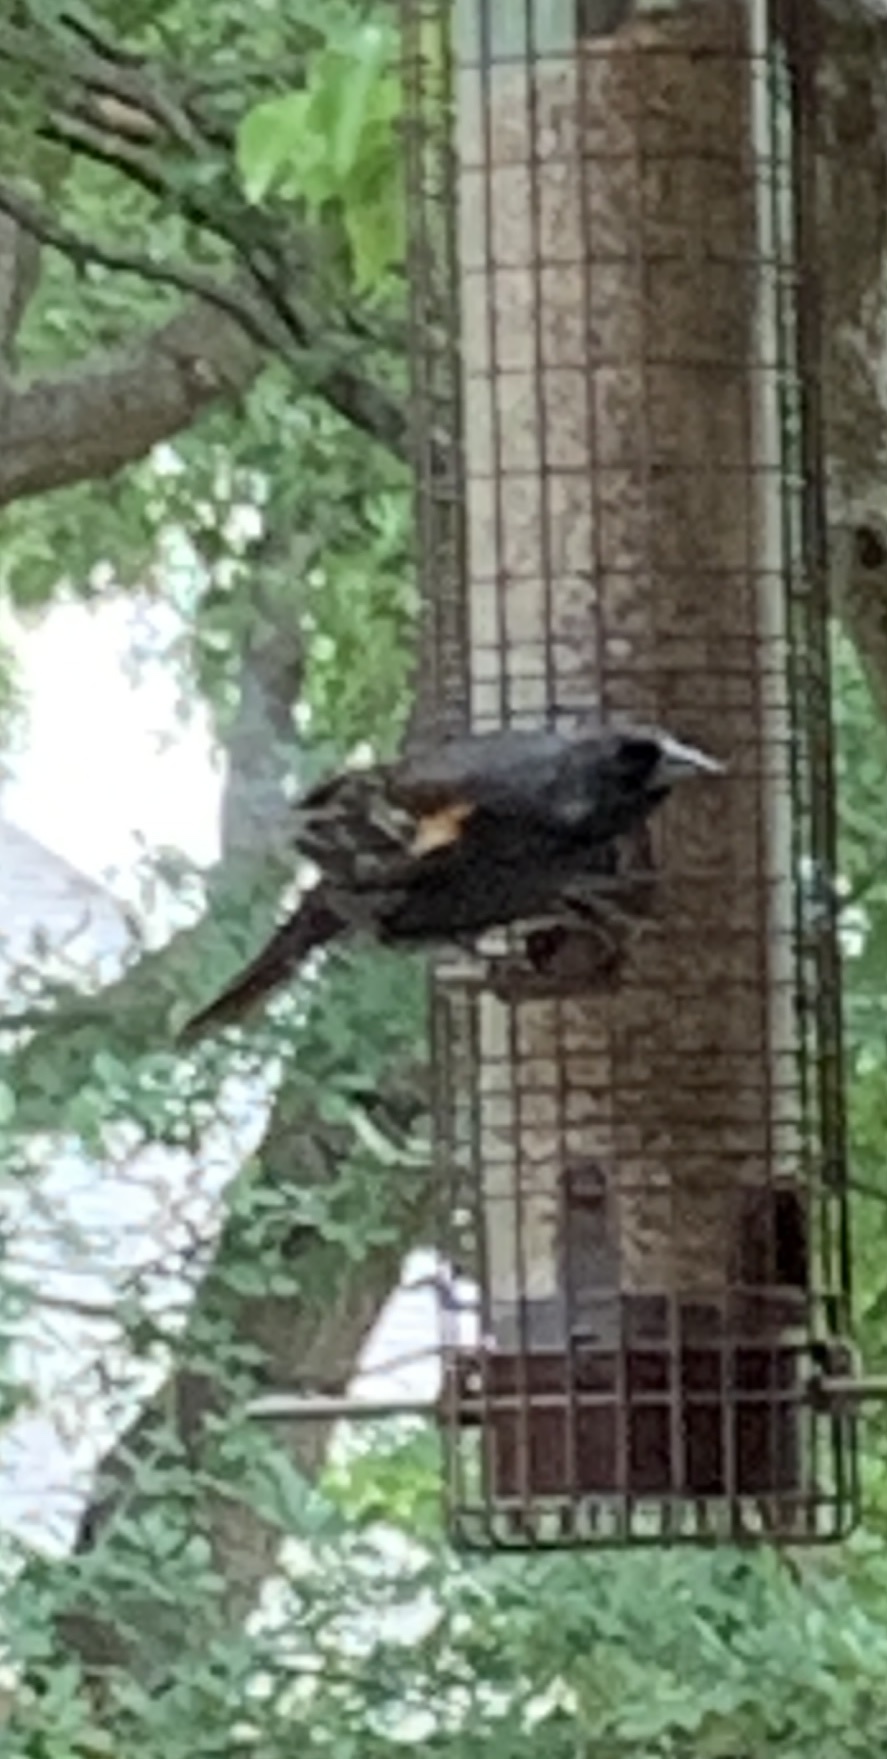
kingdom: Animalia
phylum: Chordata
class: Aves
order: Passeriformes
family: Icteridae
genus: Agelaius
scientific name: Agelaius phoeniceus
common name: Red-winged blackbird
